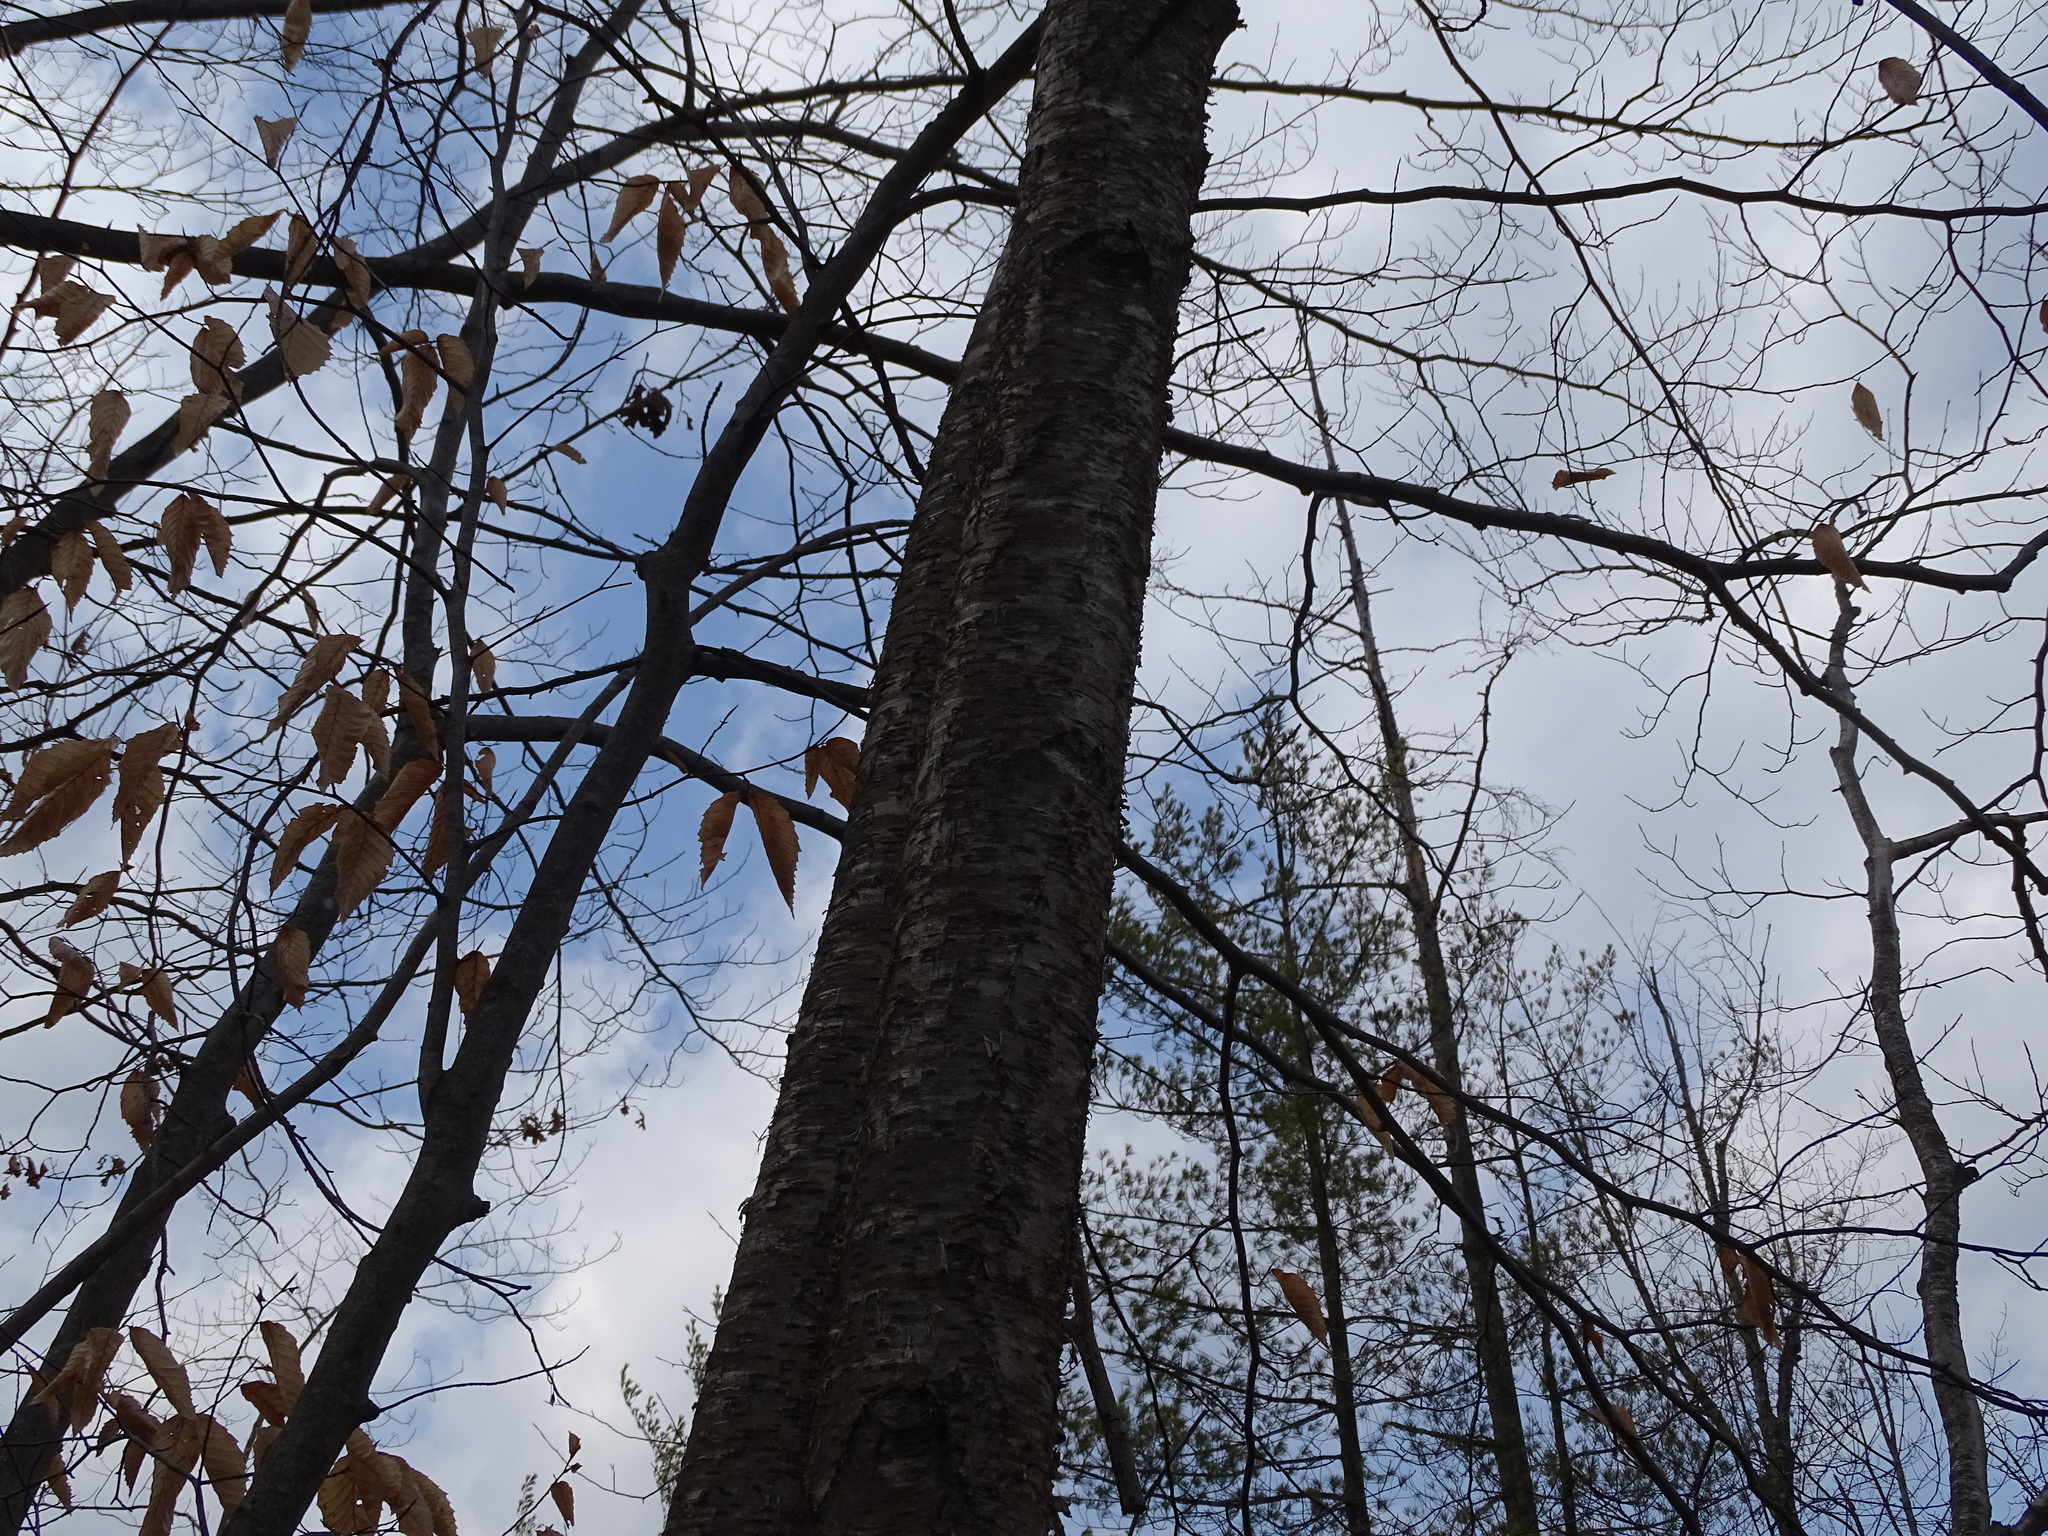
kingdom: Plantae
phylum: Tracheophyta
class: Magnoliopsida
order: Fagales
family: Betulaceae
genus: Betula
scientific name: Betula alleghaniensis
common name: Yellow birch
